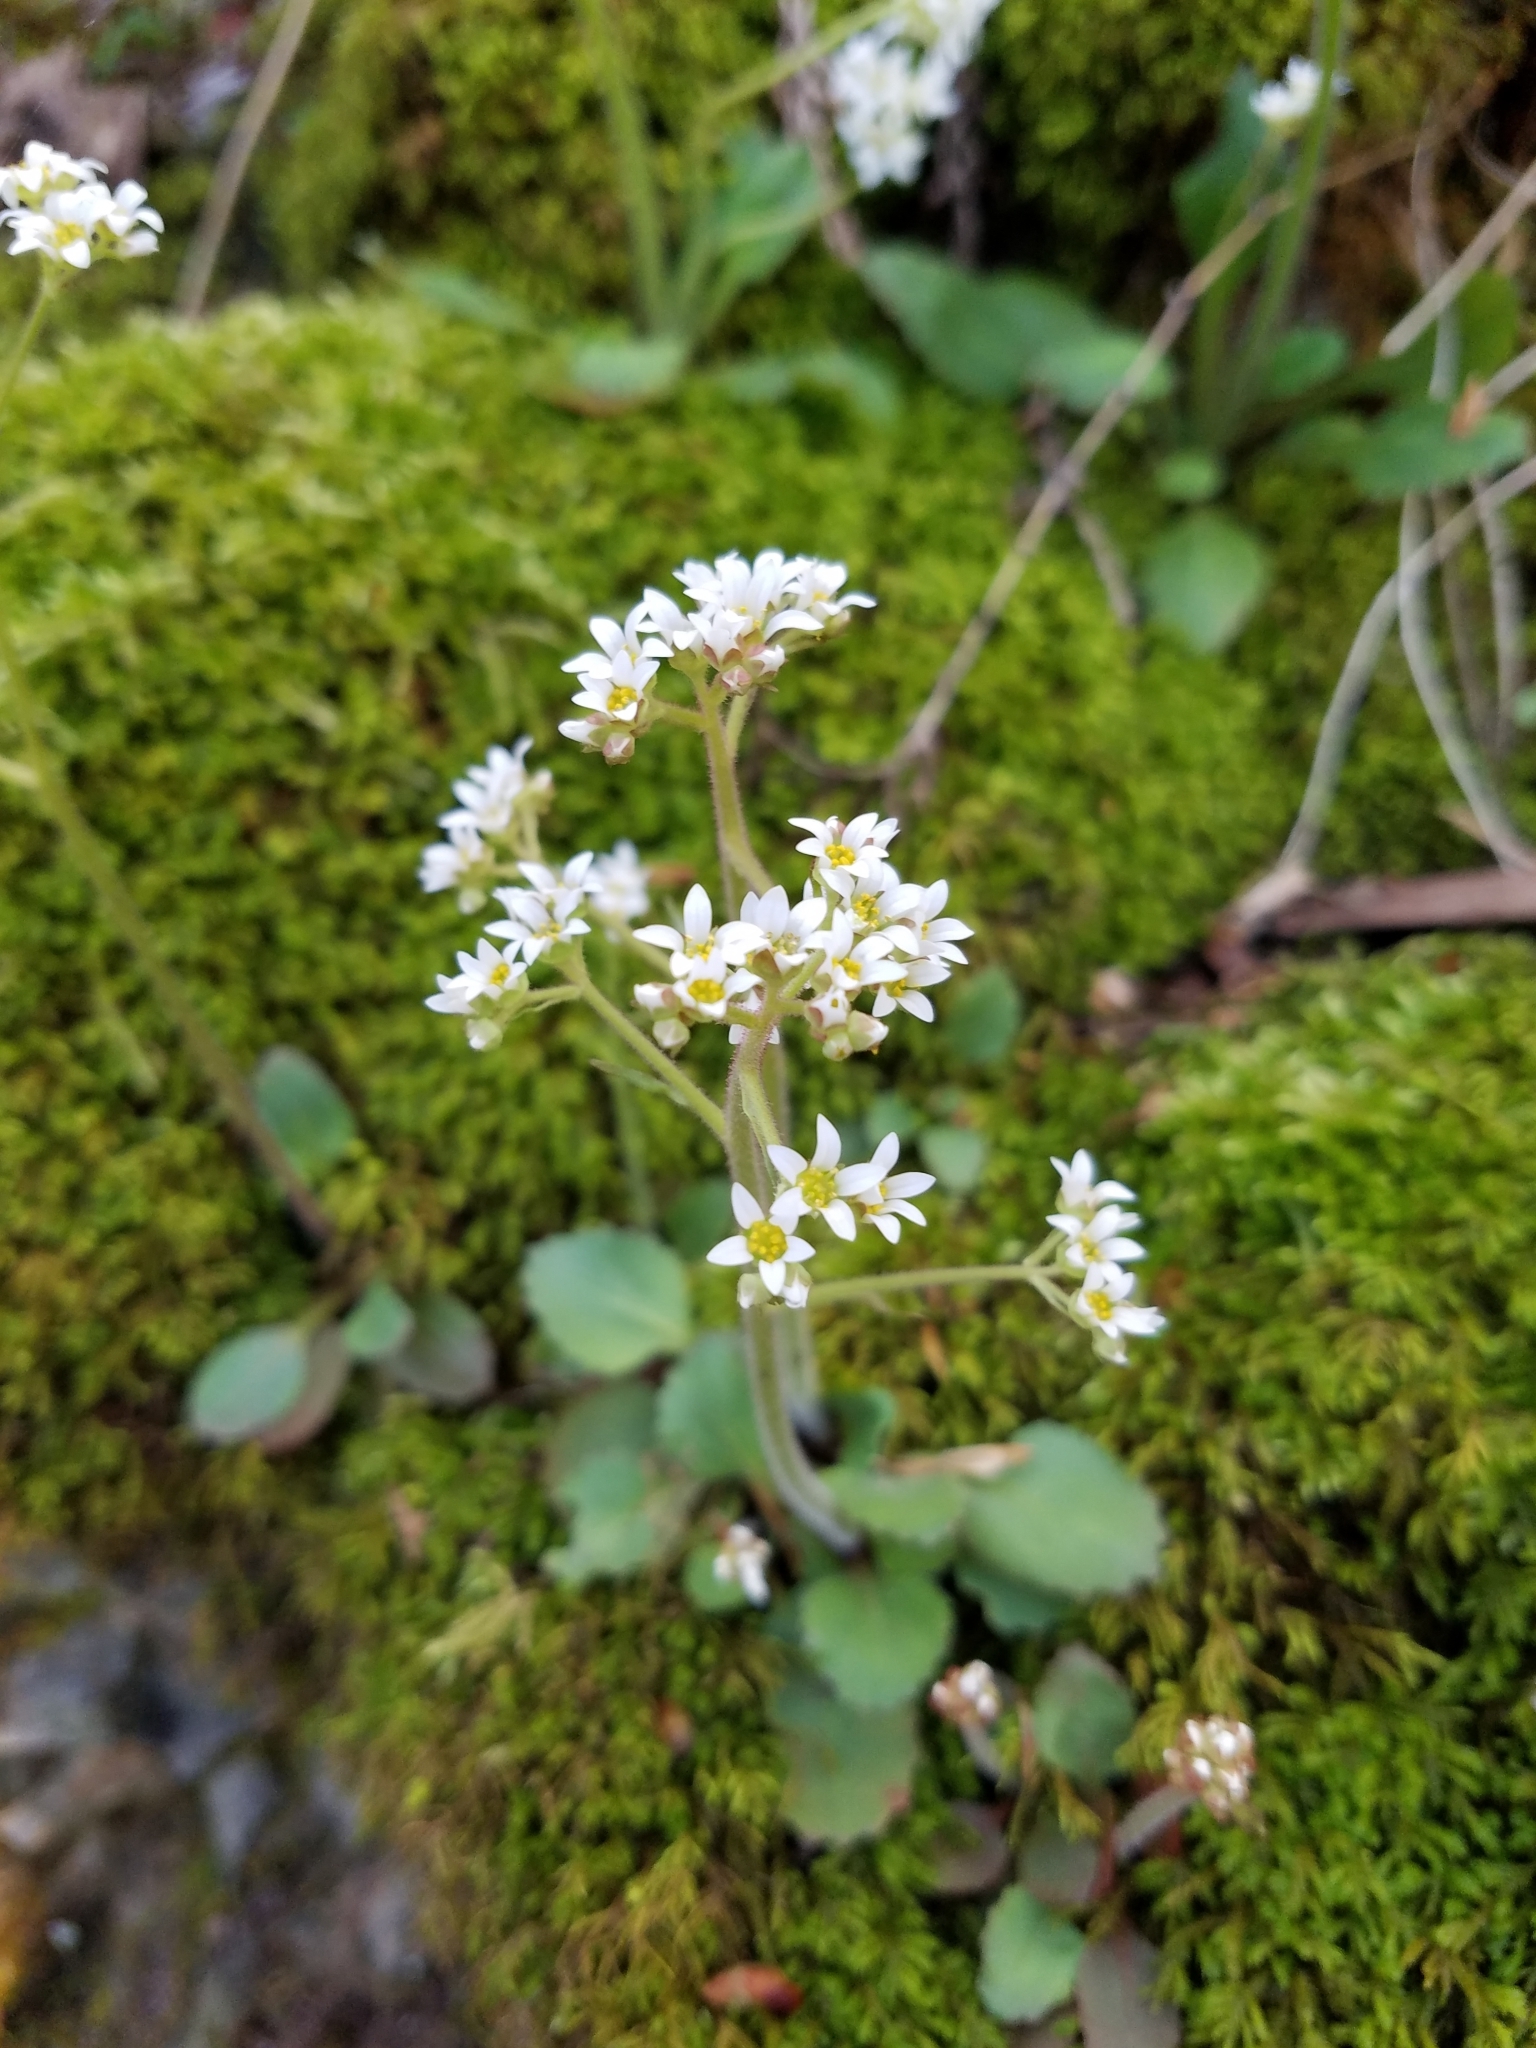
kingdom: Plantae
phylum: Tracheophyta
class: Magnoliopsida
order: Saxifragales
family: Saxifragaceae
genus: Micranthes
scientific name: Micranthes virginiensis
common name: Early saxifrage
